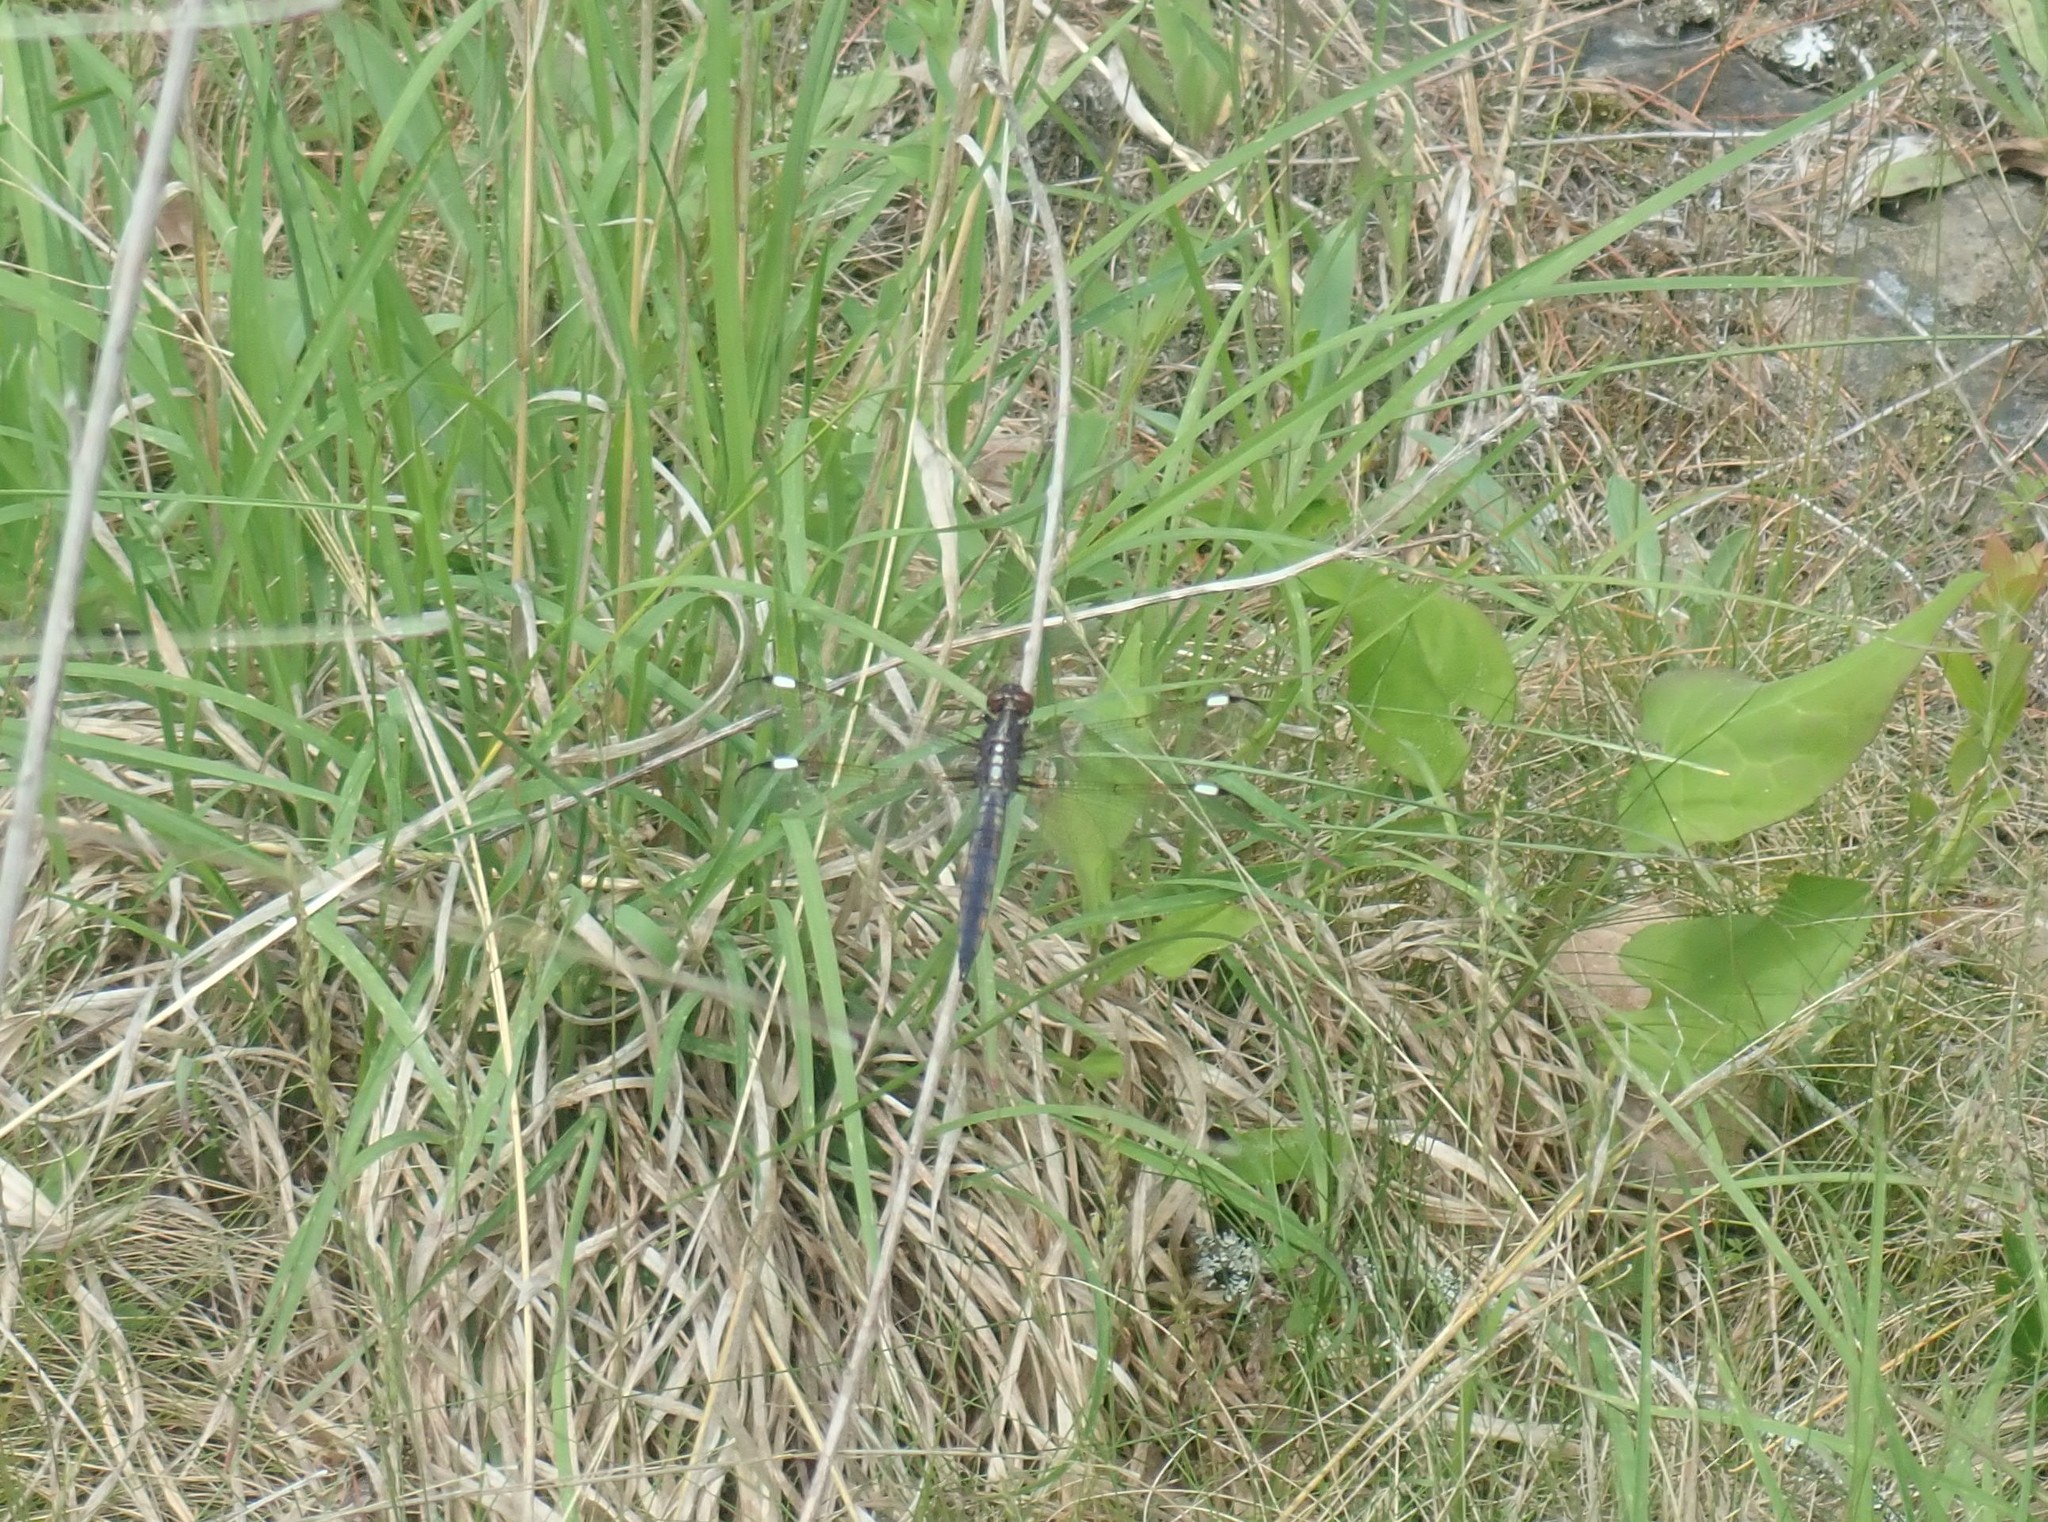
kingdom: Animalia
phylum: Arthropoda
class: Insecta
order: Odonata
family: Libellulidae
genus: Libellula
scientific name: Libellula cyanea
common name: Spangled skimmer
